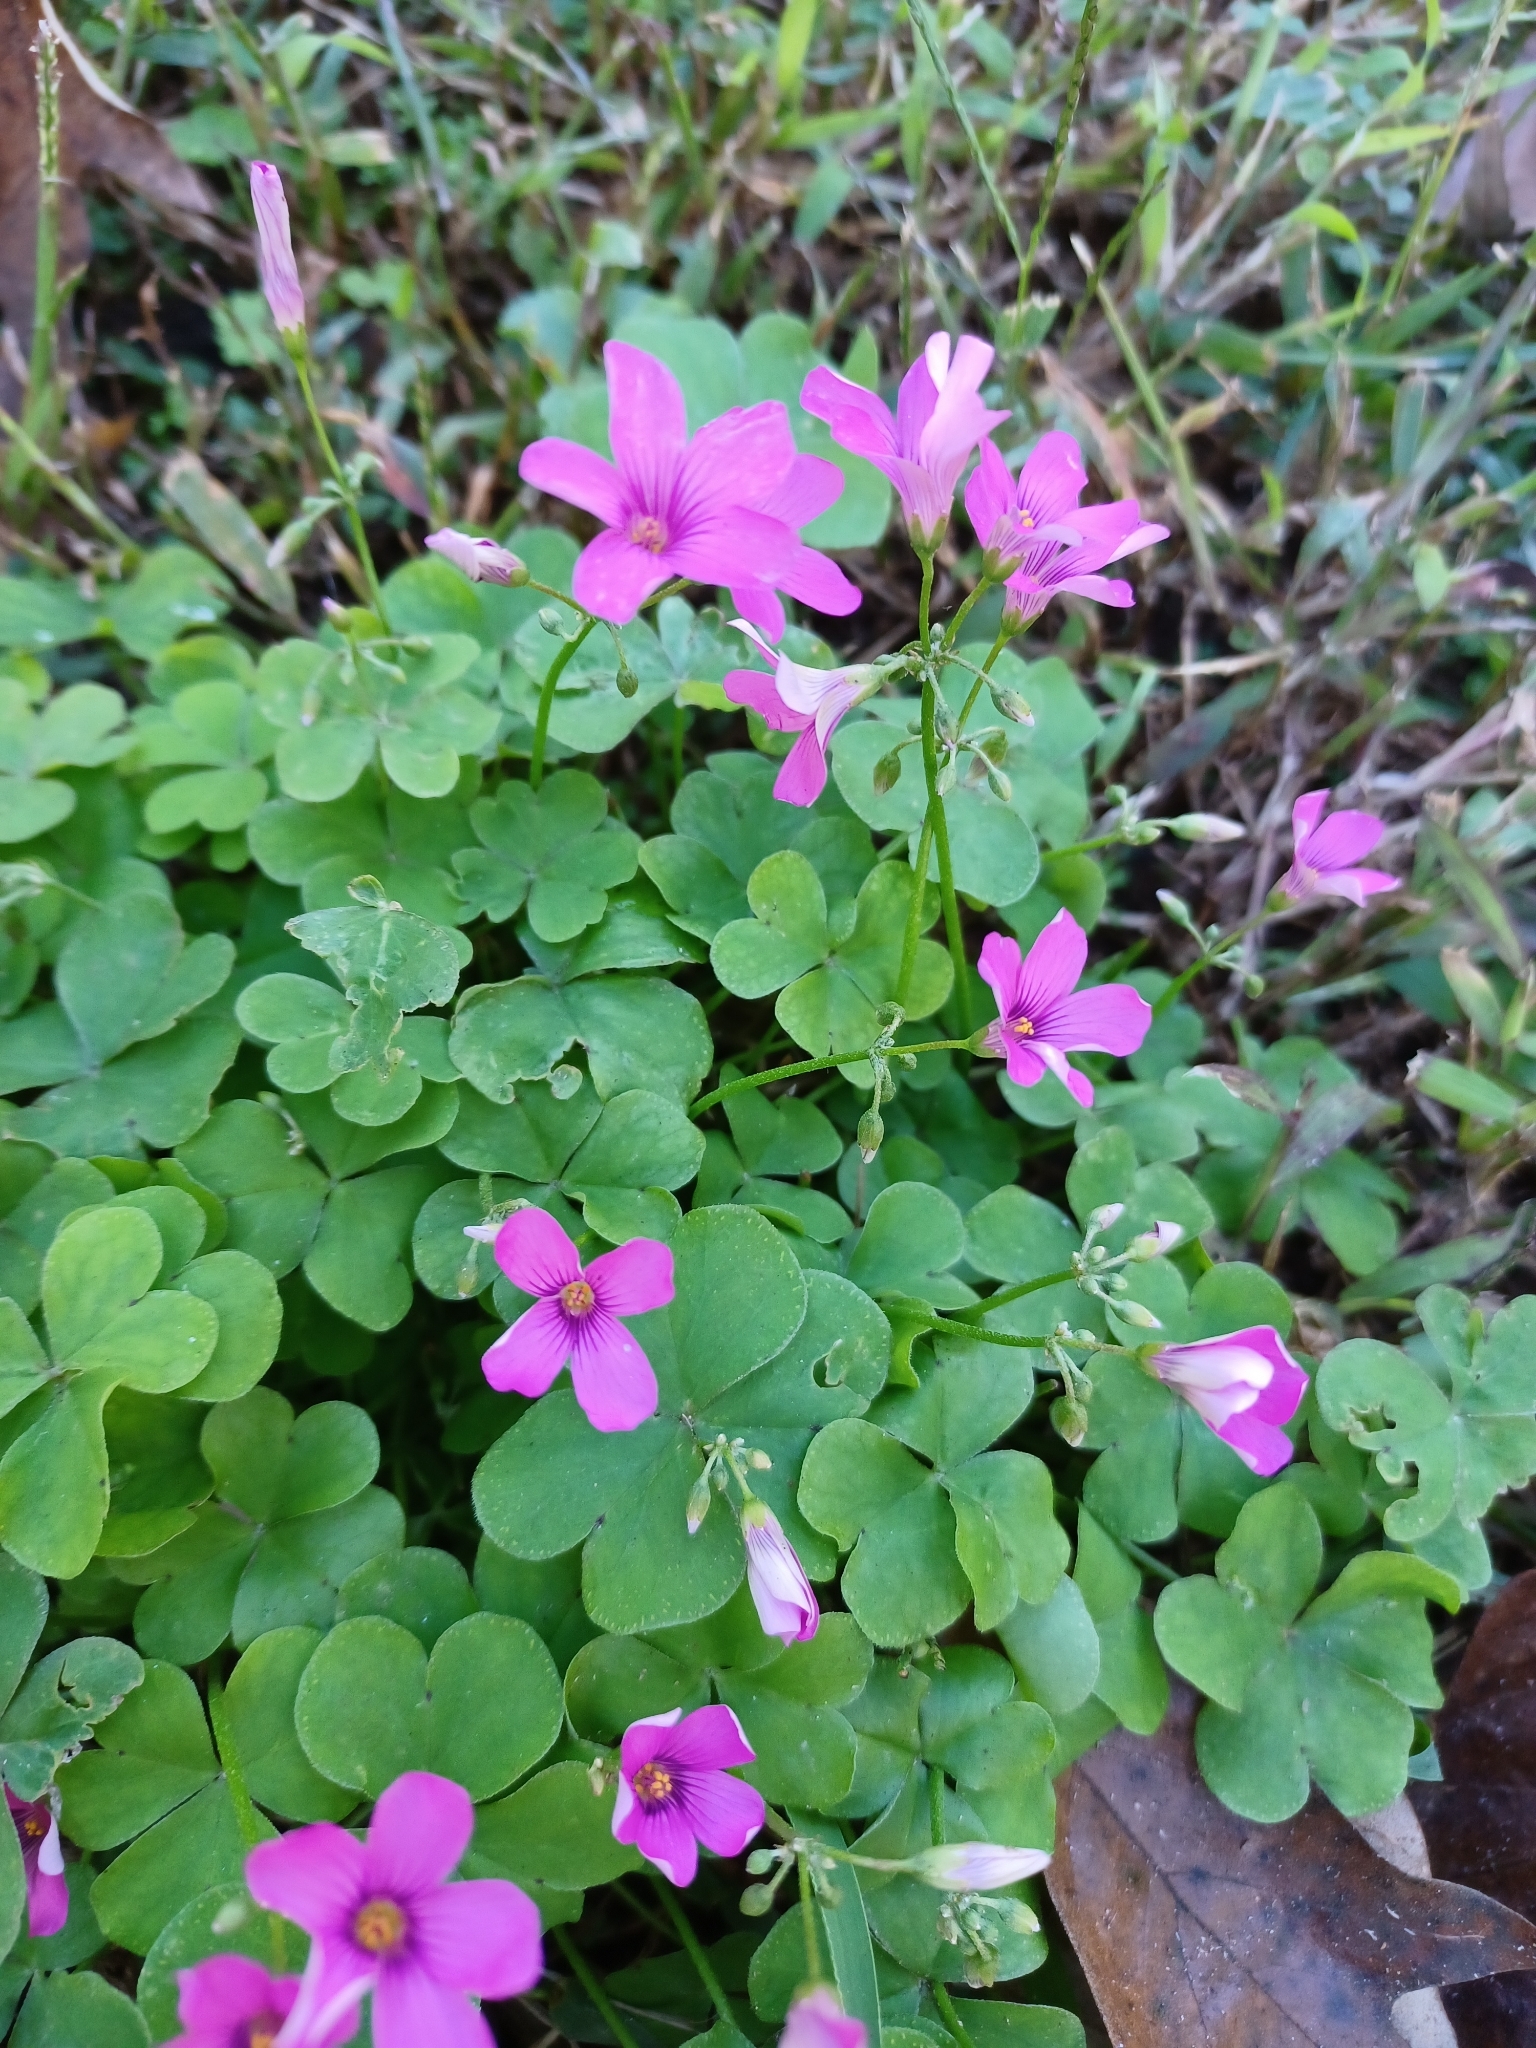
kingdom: Plantae
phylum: Tracheophyta
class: Magnoliopsida
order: Oxalidales
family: Oxalidaceae
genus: Oxalis
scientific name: Oxalis articulata
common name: Pink-sorrel
